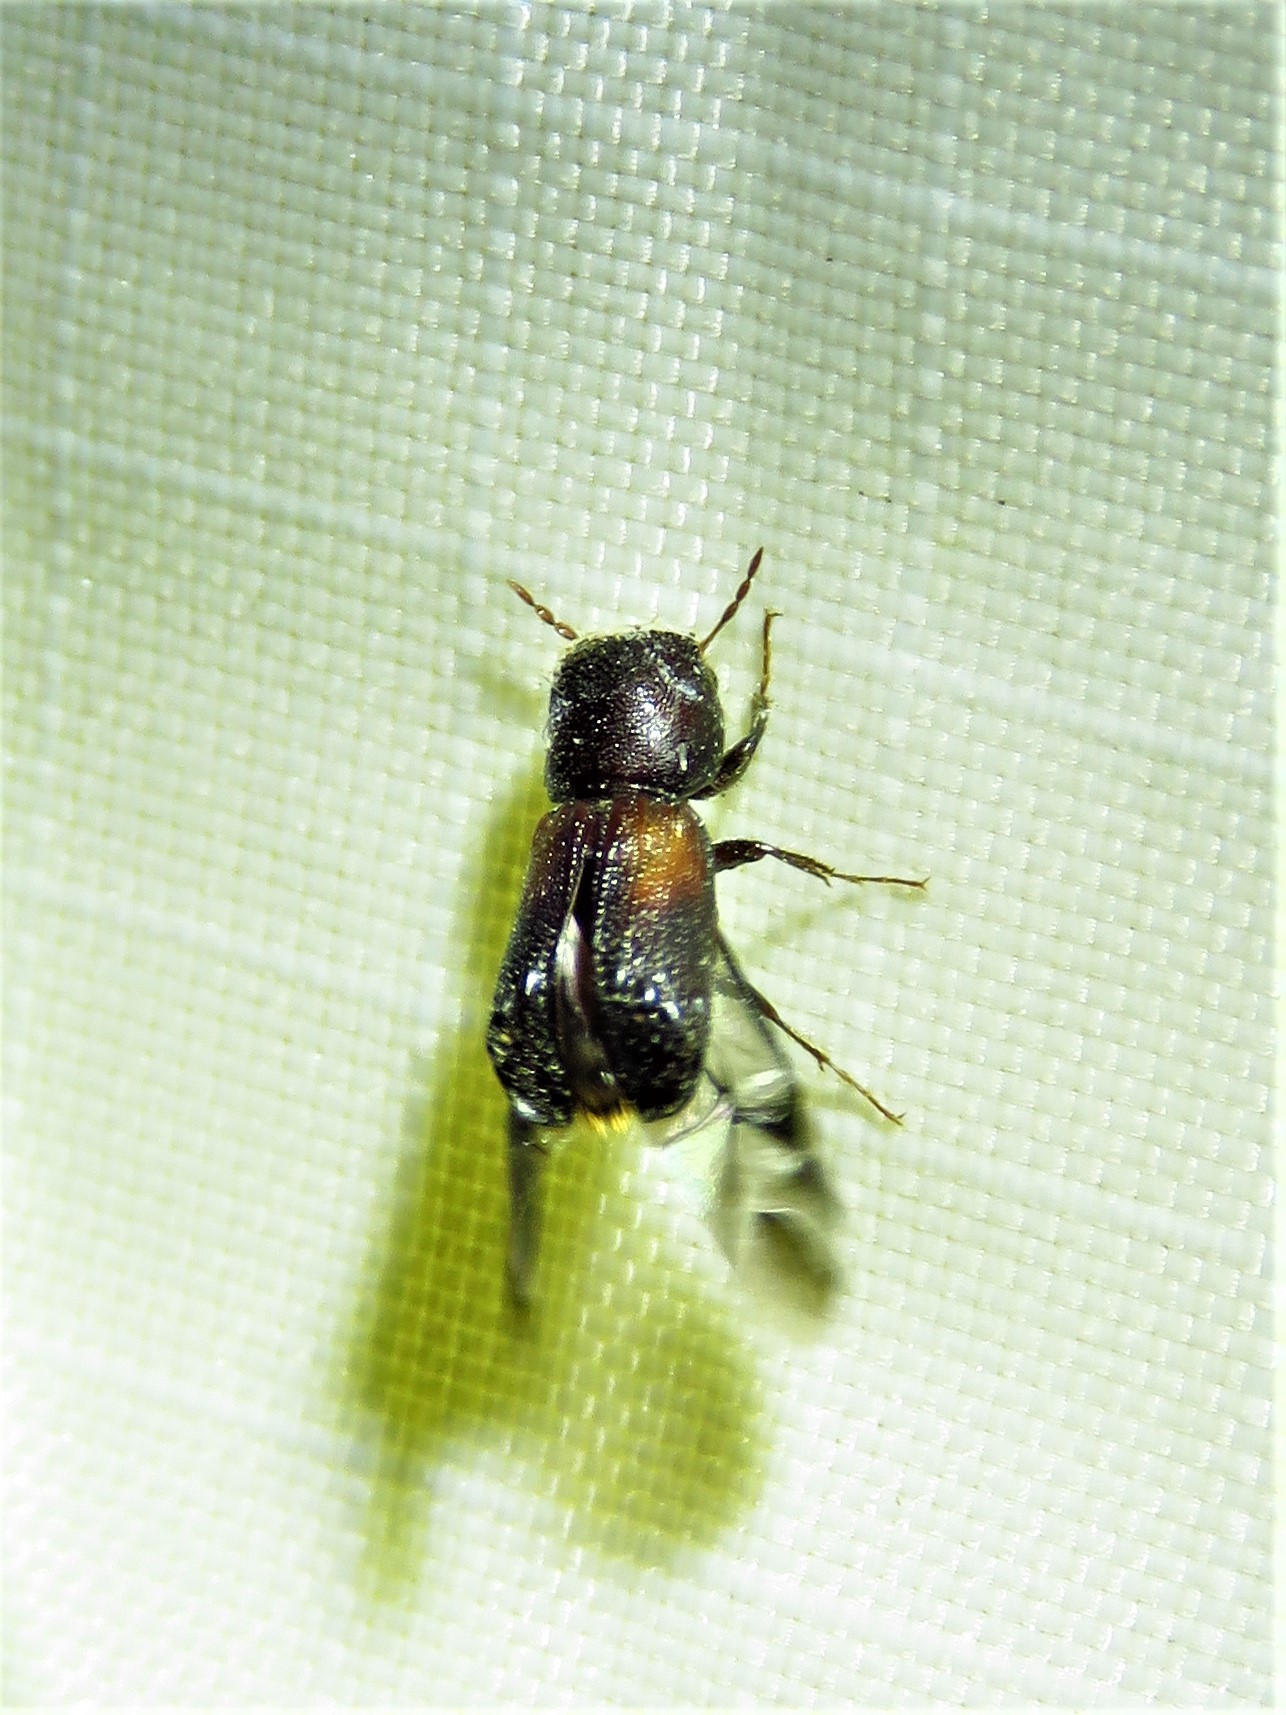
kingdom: Animalia
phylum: Arthropoda
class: Insecta
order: Coleoptera
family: Bostrichidae
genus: Xylobiops
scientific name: Xylobiops basilaris
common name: Red-shouldered bostrichid
